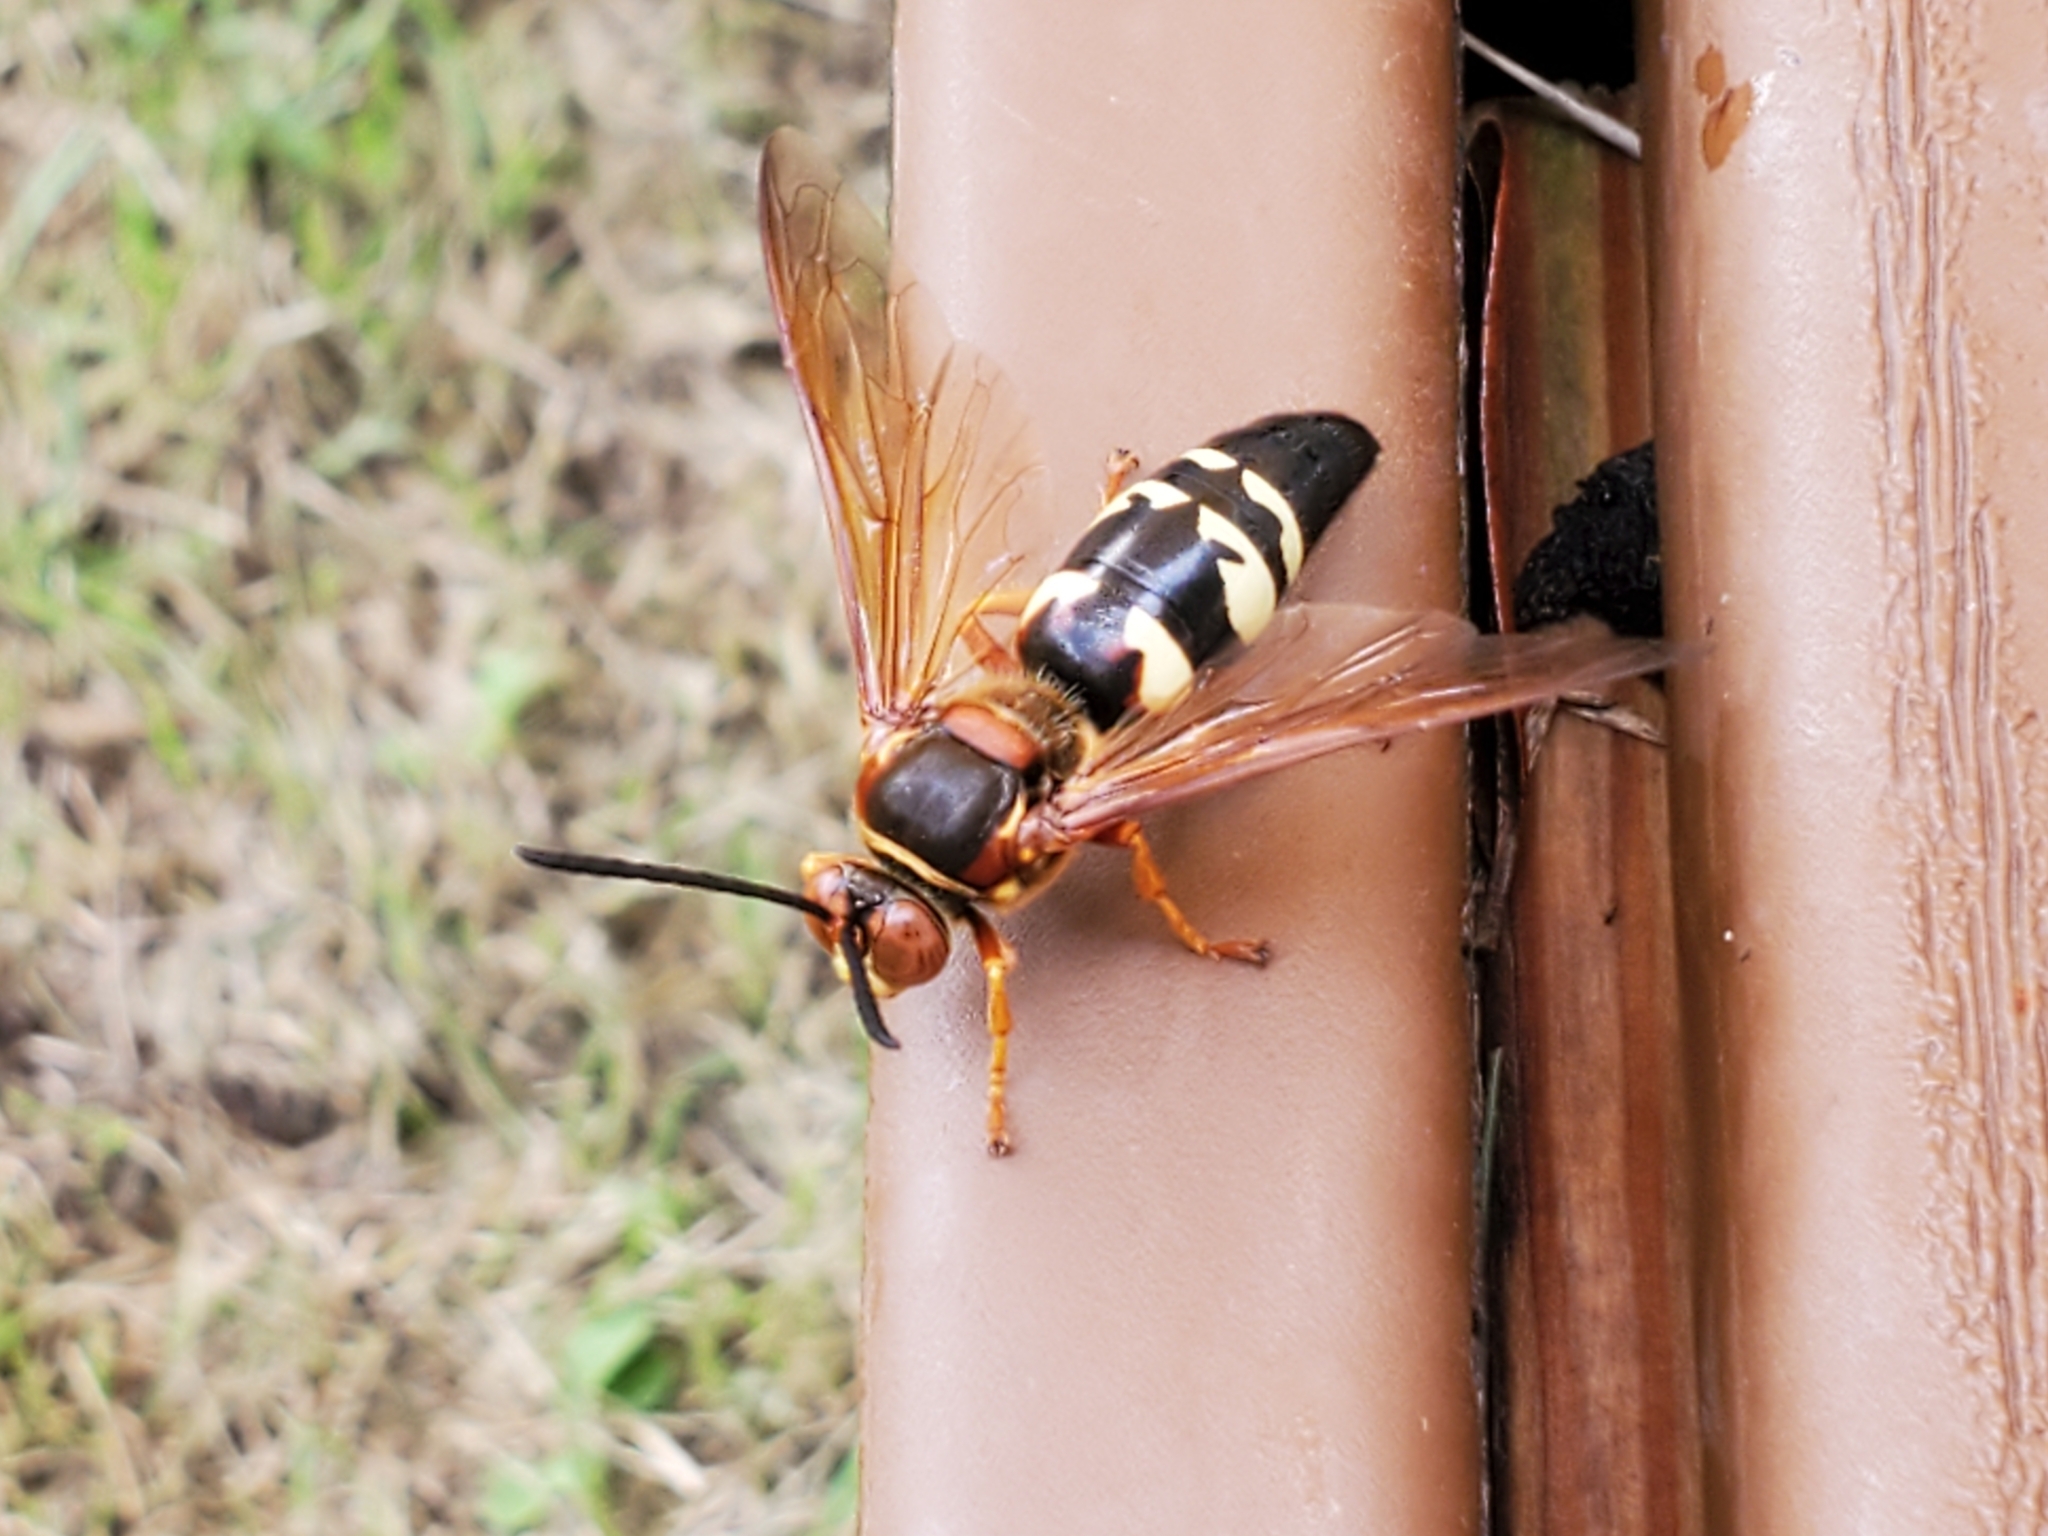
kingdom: Animalia
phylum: Arthropoda
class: Insecta
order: Hymenoptera
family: Crabronidae
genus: Sphecius
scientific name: Sphecius speciosus
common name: Cicada killer
